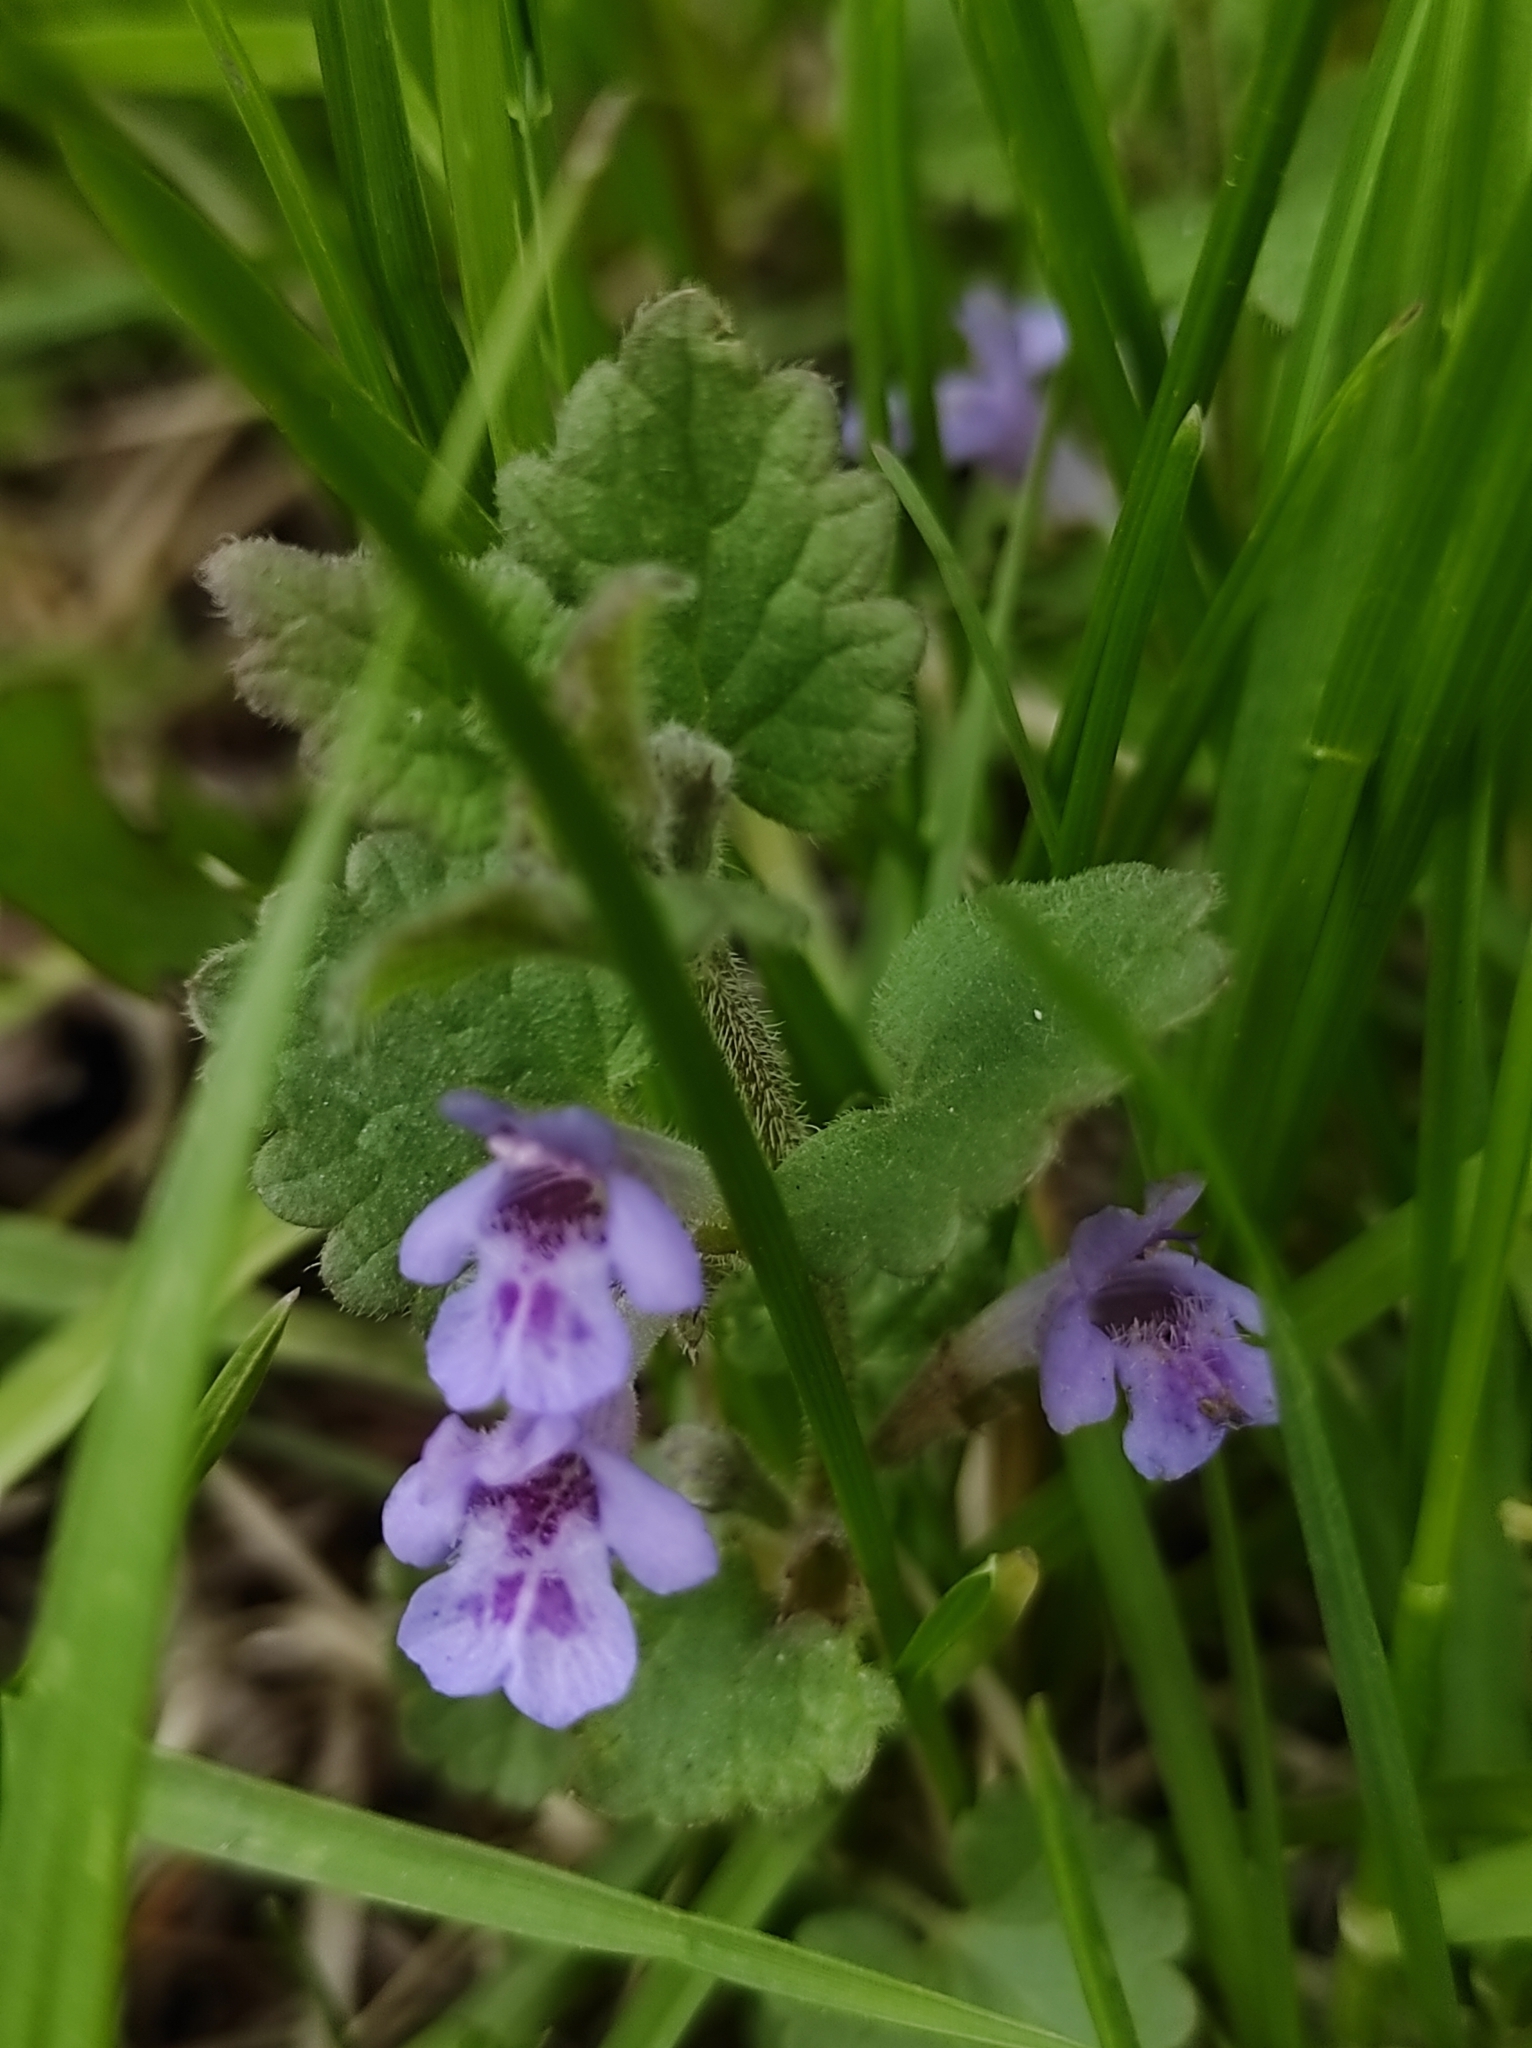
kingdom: Plantae
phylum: Tracheophyta
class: Magnoliopsida
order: Lamiales
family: Lamiaceae
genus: Glechoma
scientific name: Glechoma hederacea
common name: Ground ivy
